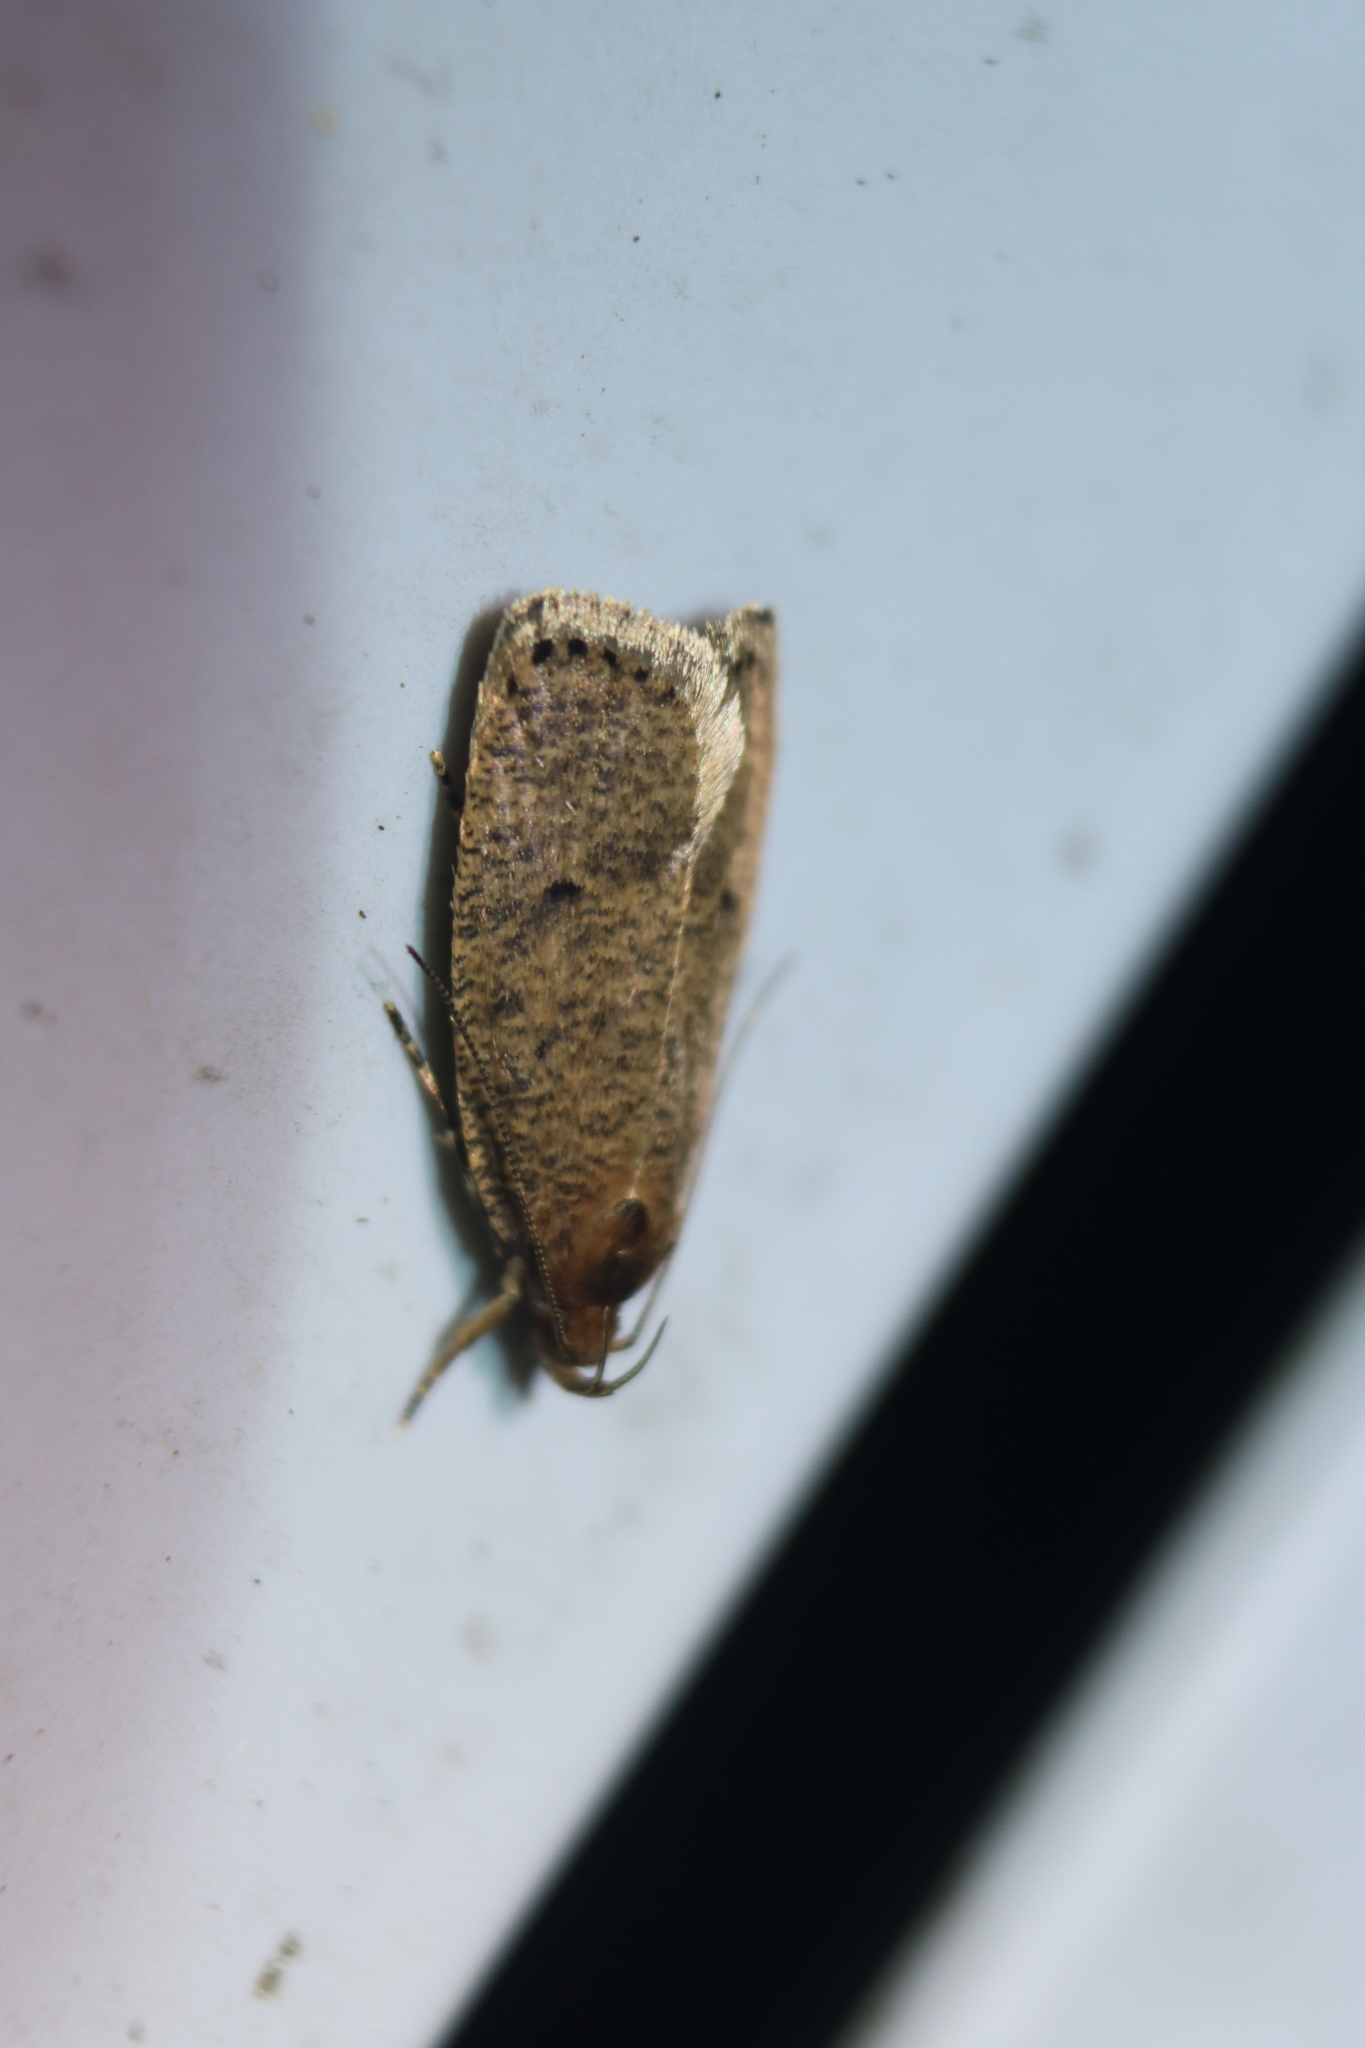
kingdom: Animalia
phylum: Arthropoda
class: Insecta
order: Lepidoptera
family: Depressariidae
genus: Psilocorsis
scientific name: Psilocorsis reflexella
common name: Dotted leaftier moth
